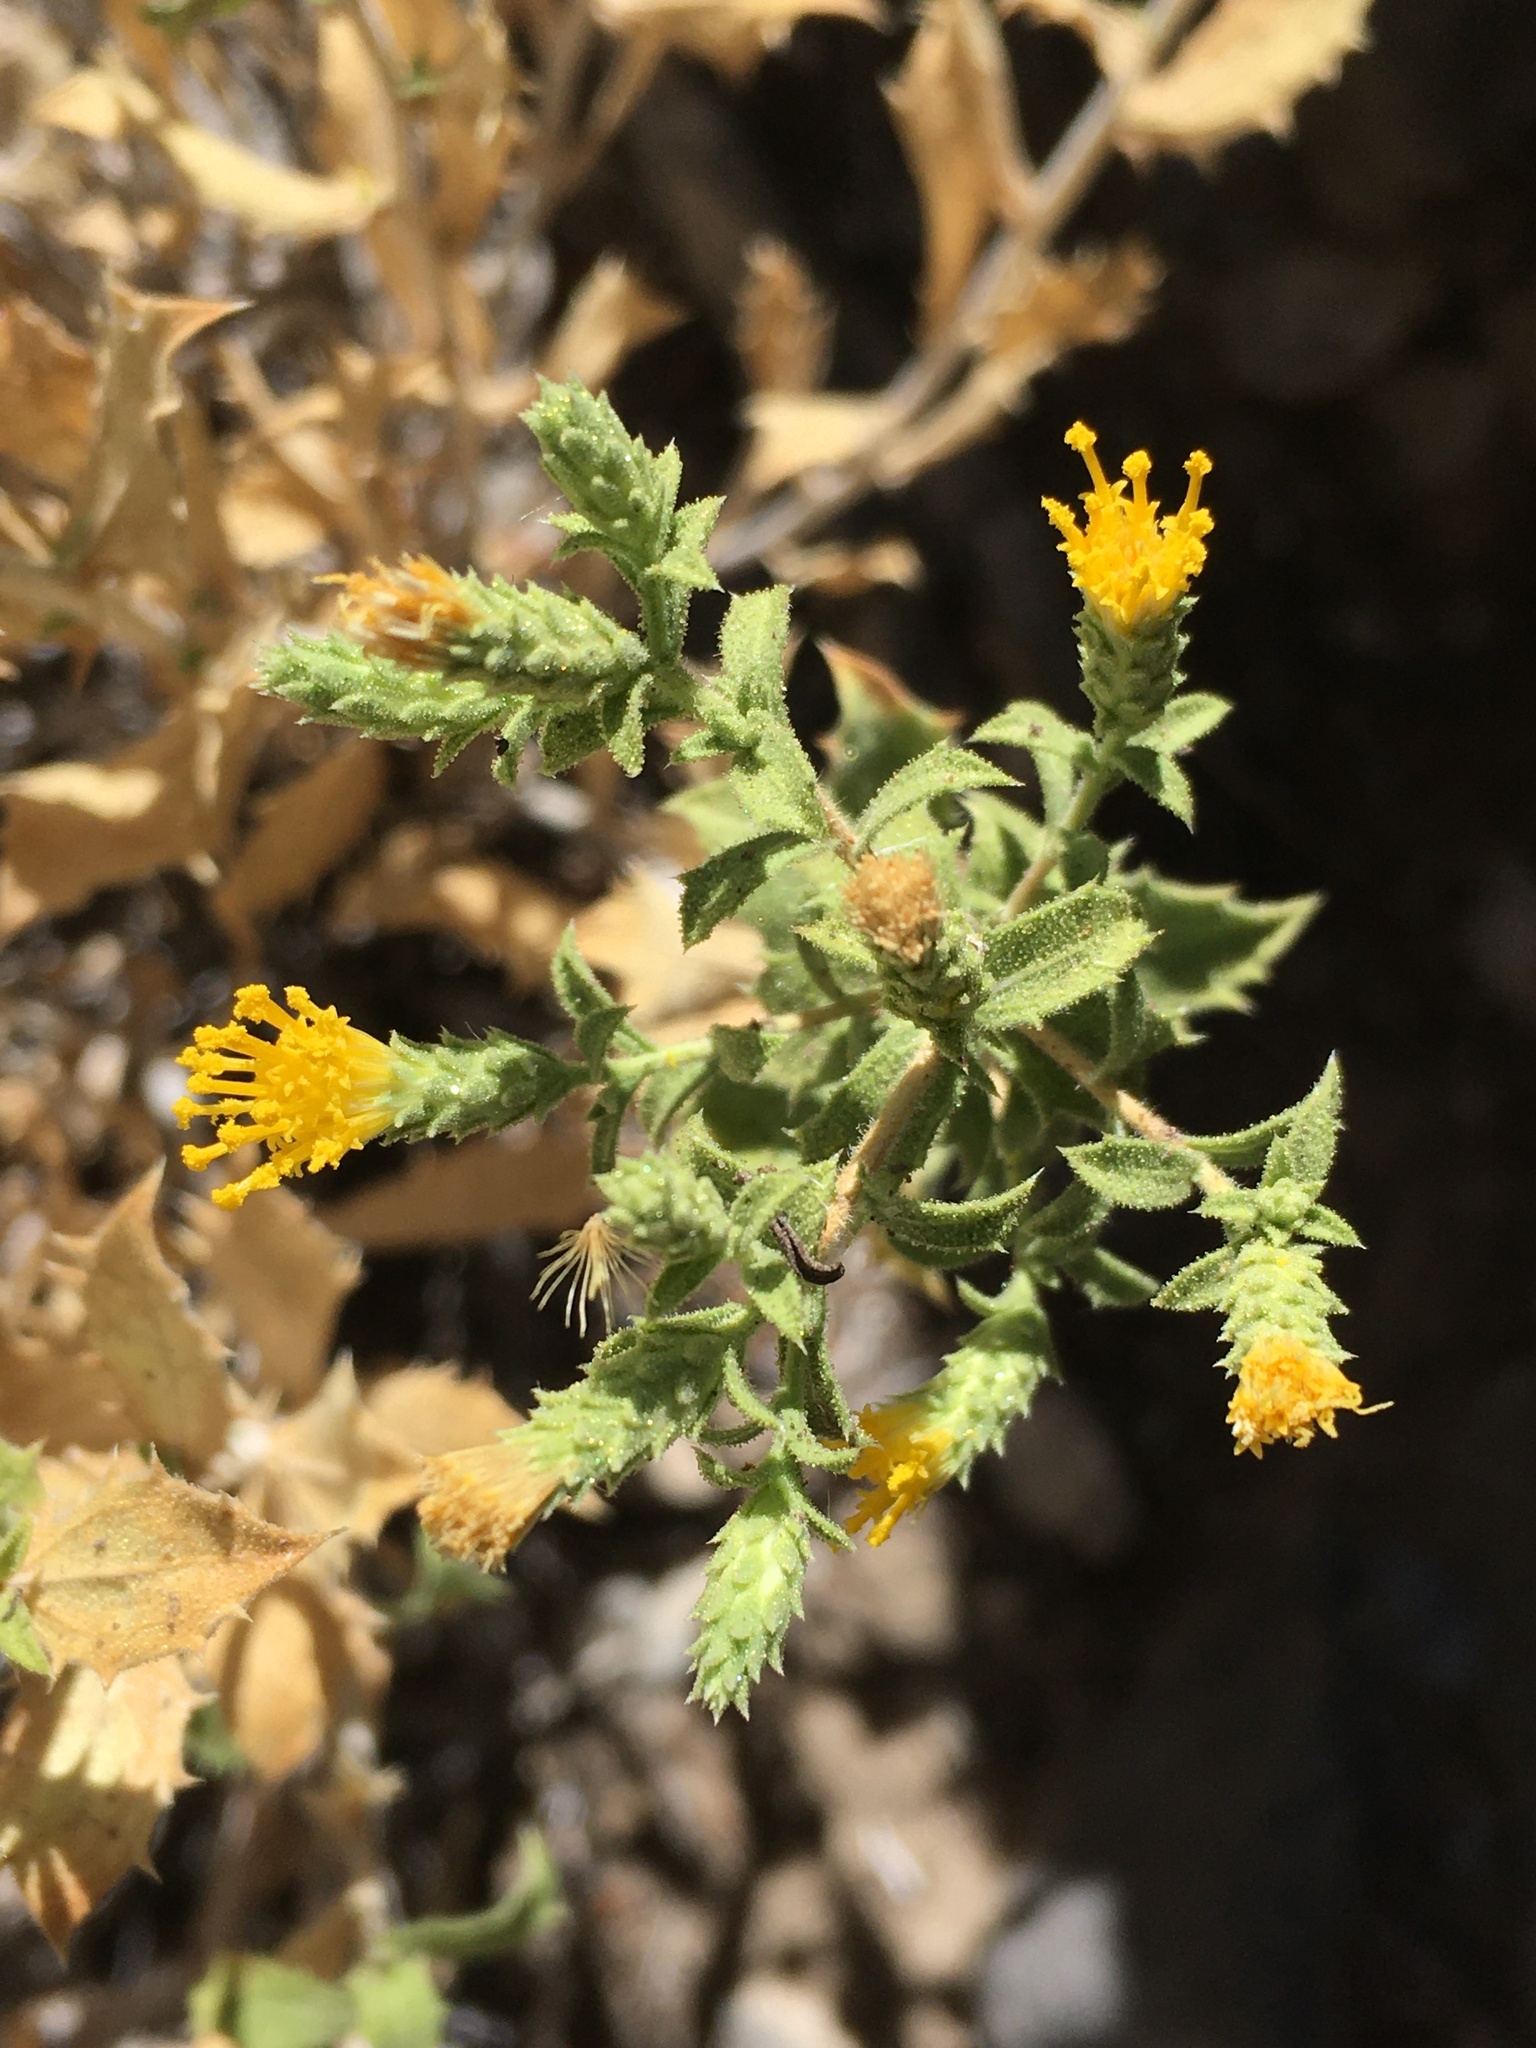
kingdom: Plantae
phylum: Tracheophyta
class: Magnoliopsida
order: Asterales
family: Asteraceae
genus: Adiaphila
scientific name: Adiaphila brickellioides
